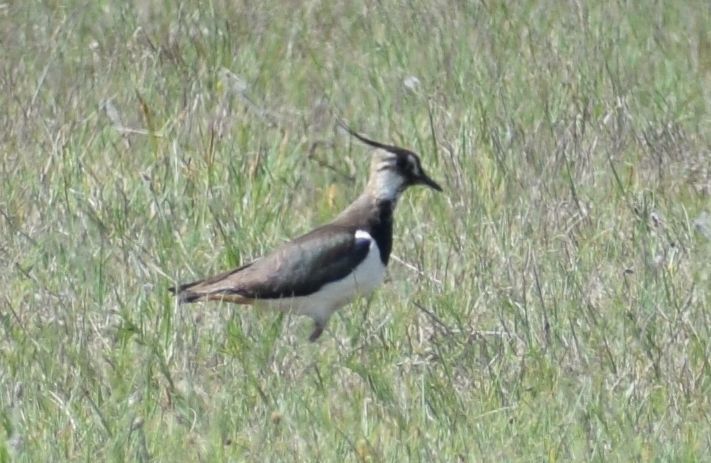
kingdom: Animalia
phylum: Chordata
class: Aves
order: Charadriiformes
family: Charadriidae
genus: Vanellus
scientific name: Vanellus vanellus
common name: Northern lapwing
